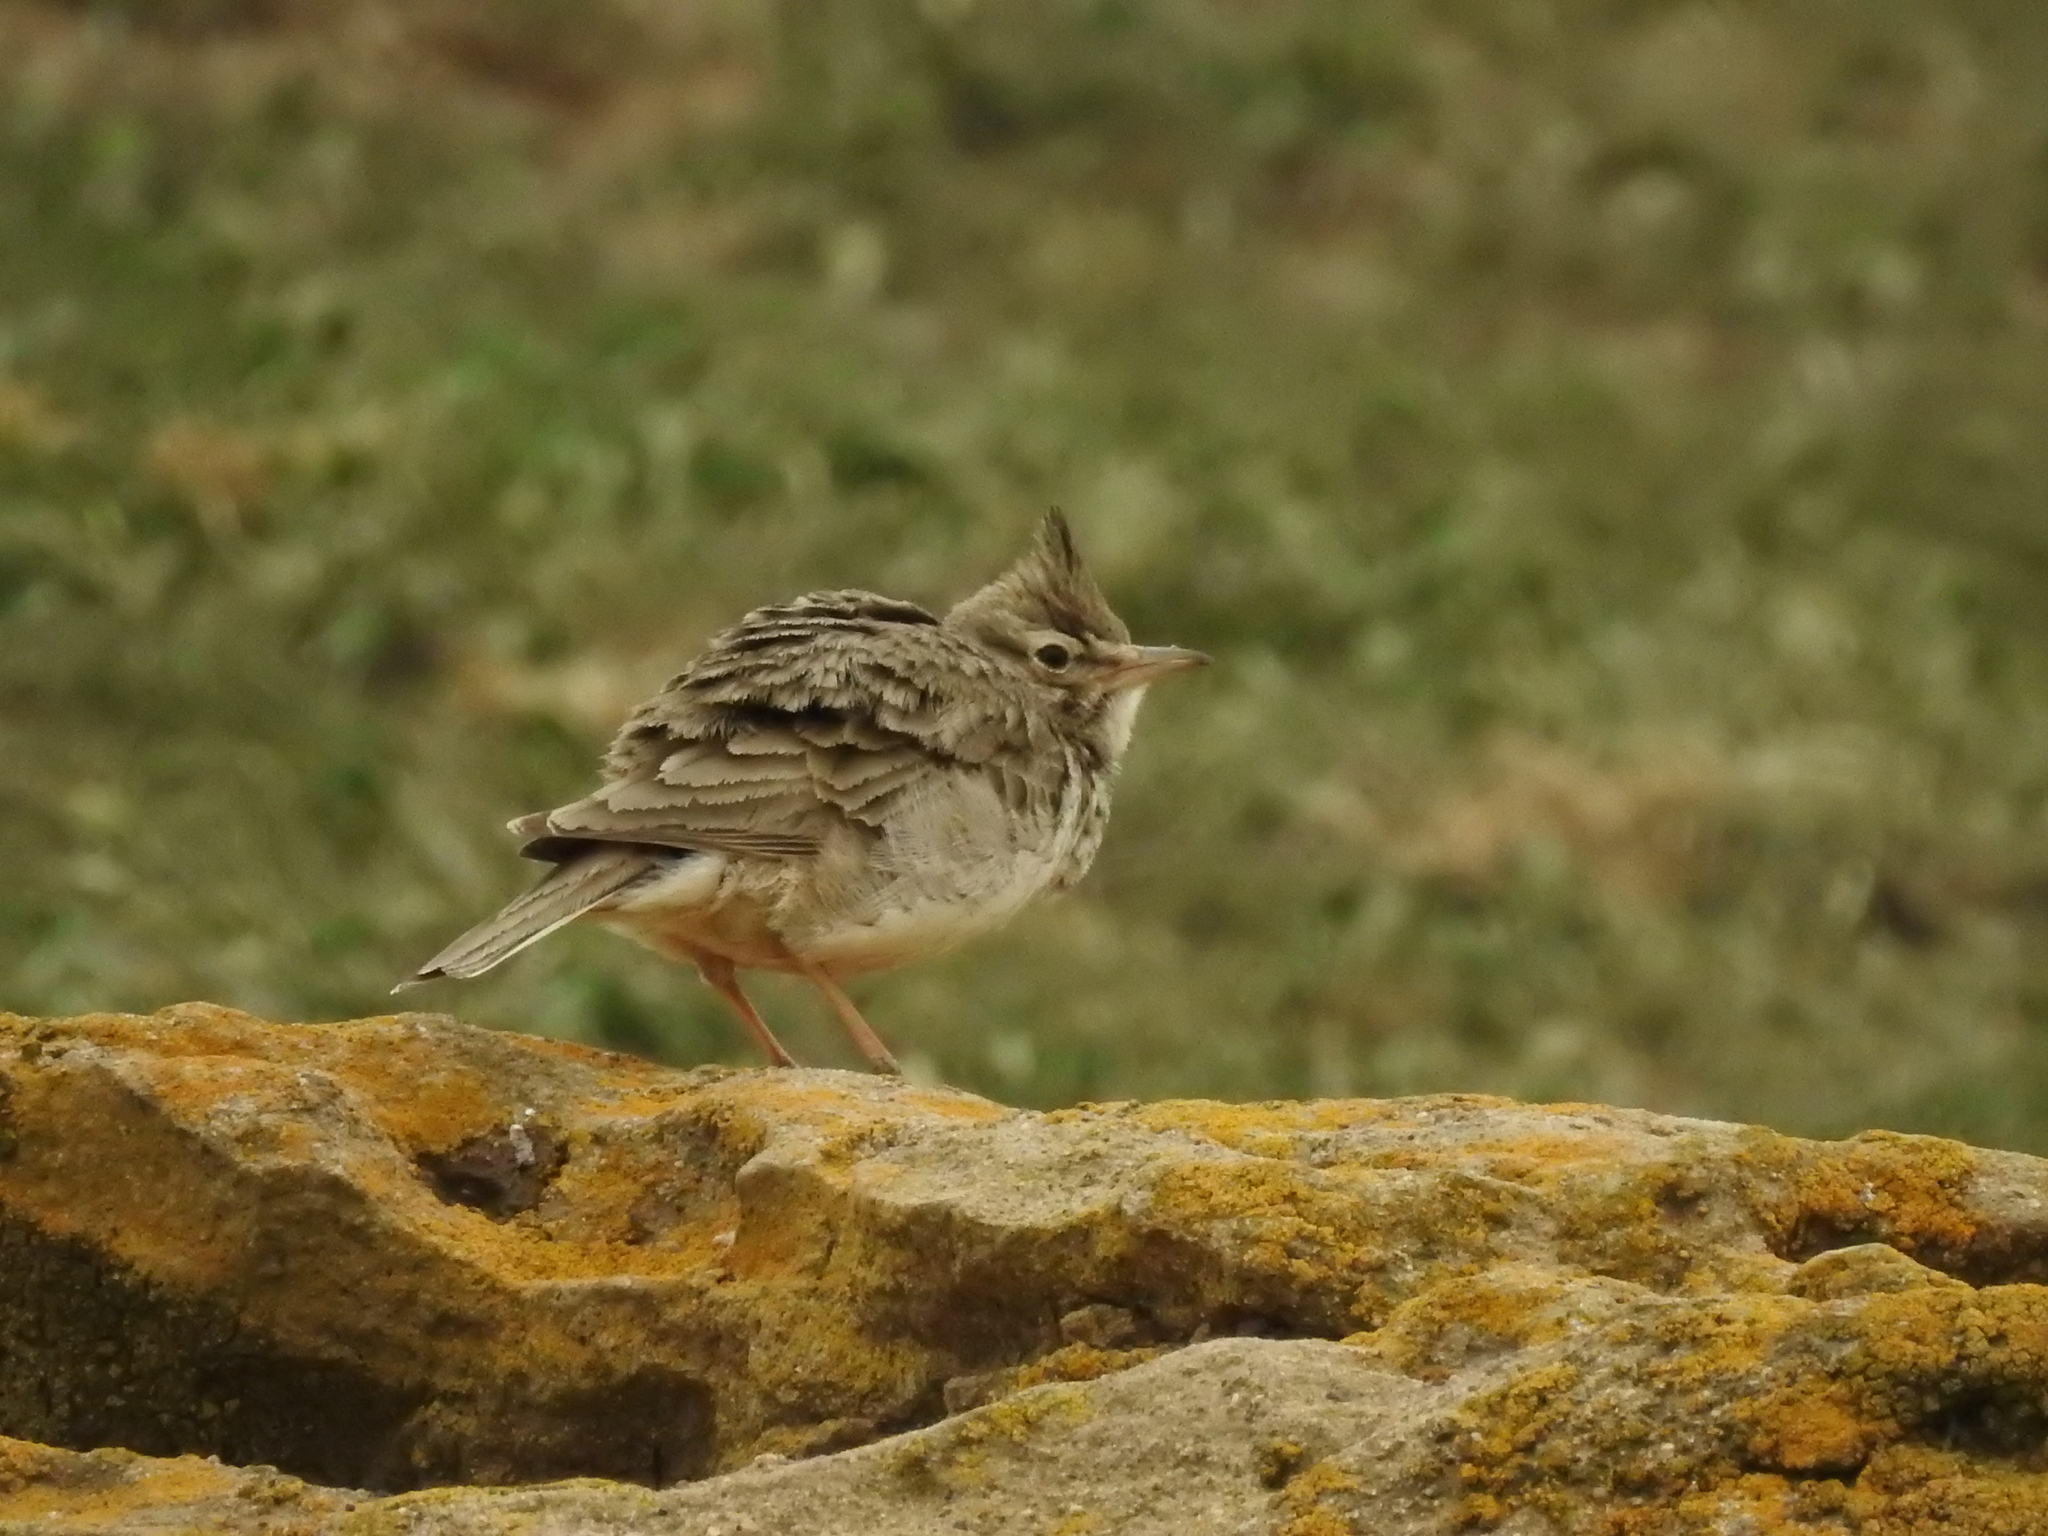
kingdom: Animalia
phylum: Chordata
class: Aves
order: Passeriformes
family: Alaudidae
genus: Galerida
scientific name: Galerida cristata
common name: Crested lark
